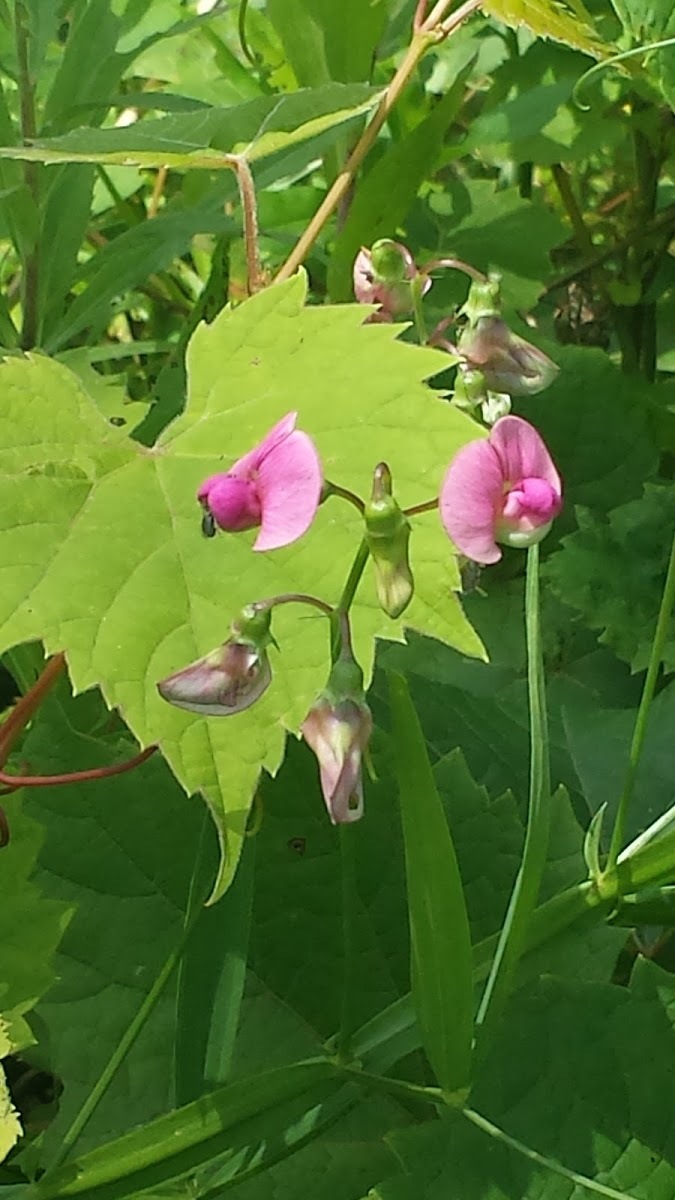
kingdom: Plantae
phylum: Tracheophyta
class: Magnoliopsida
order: Fabales
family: Fabaceae
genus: Lathyrus
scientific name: Lathyrus latifolius
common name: Perennial pea
